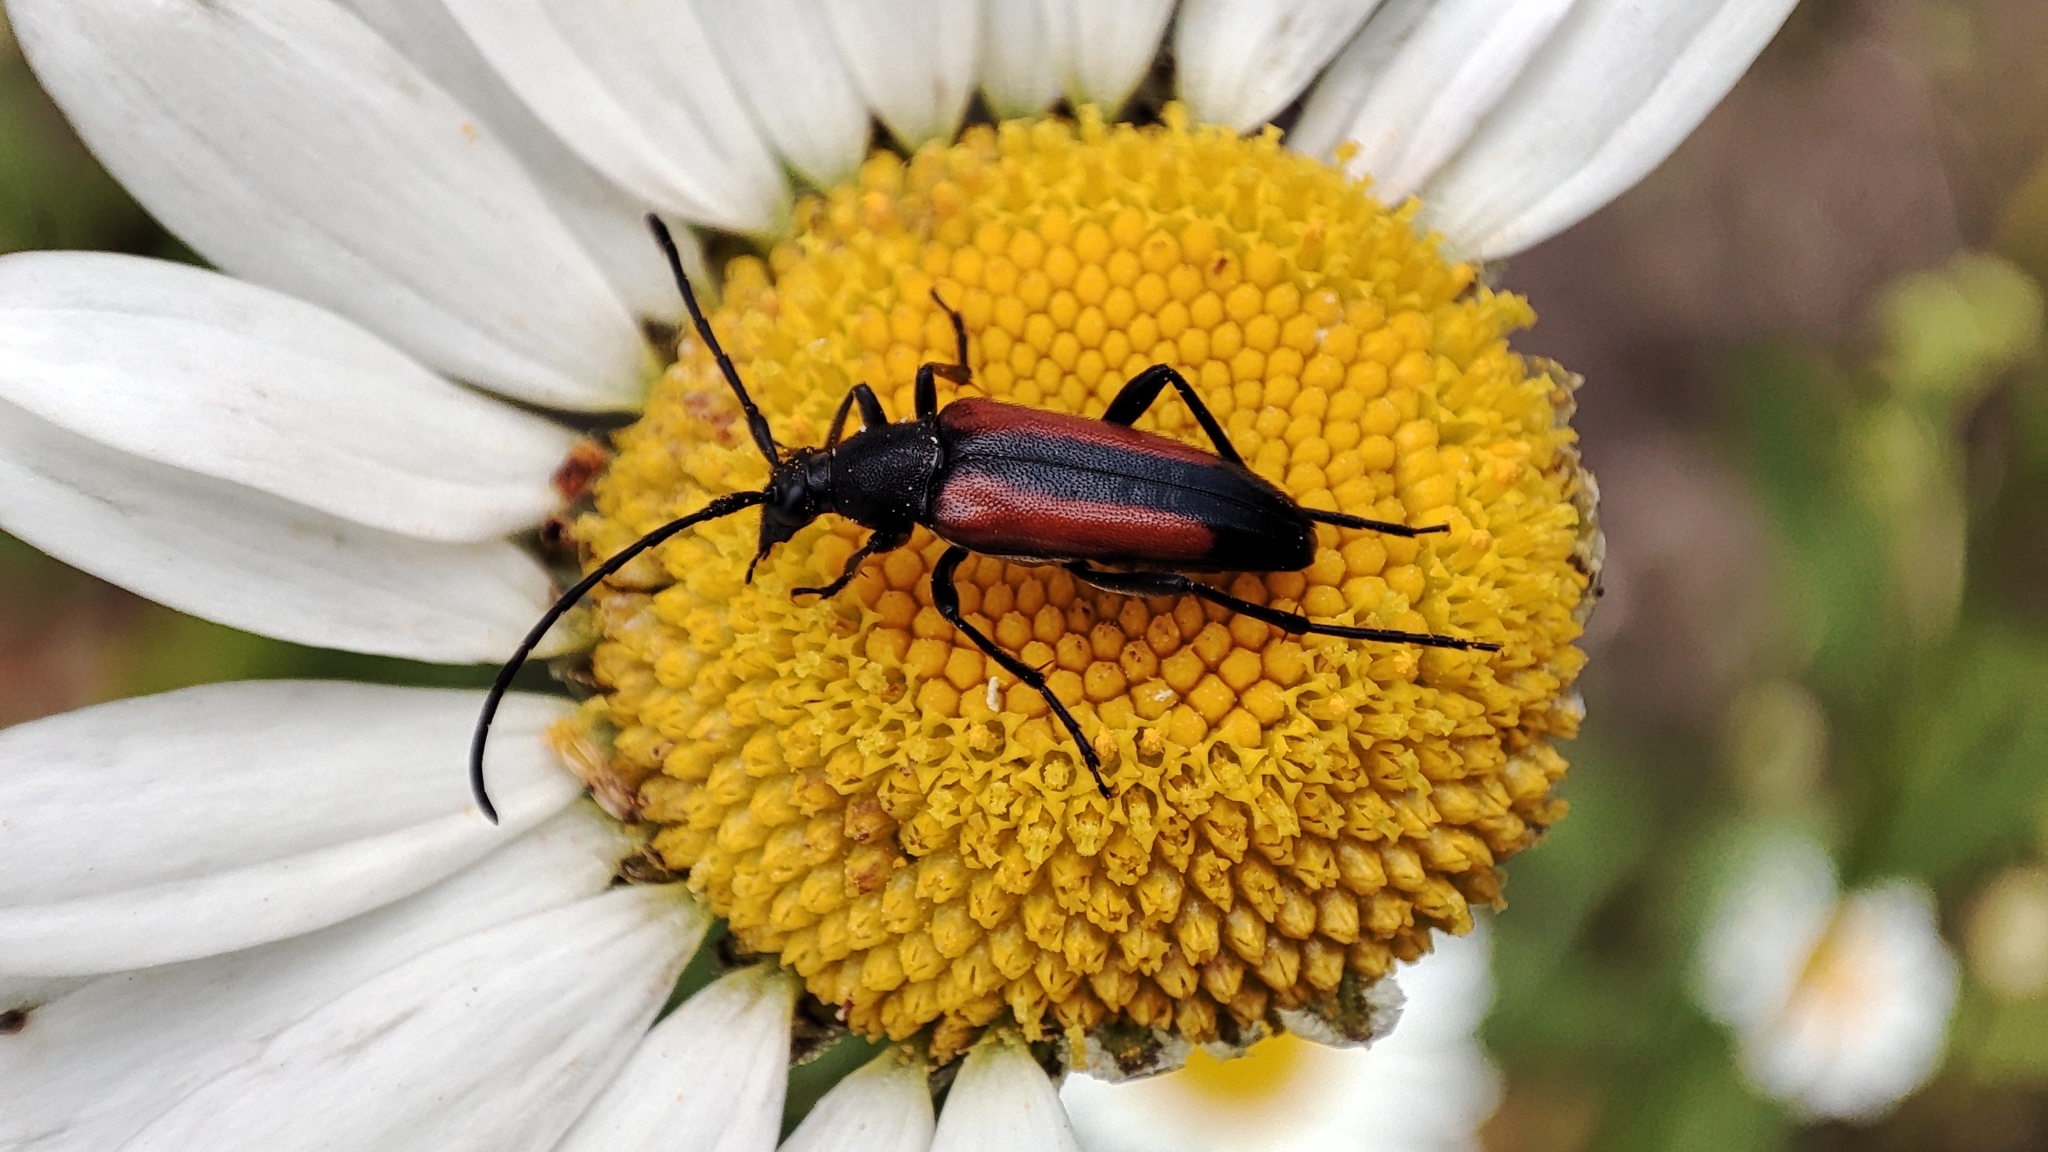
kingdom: Animalia
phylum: Arthropoda
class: Insecta
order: Coleoptera
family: Cerambycidae
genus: Stenurella
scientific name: Stenurella melanura
